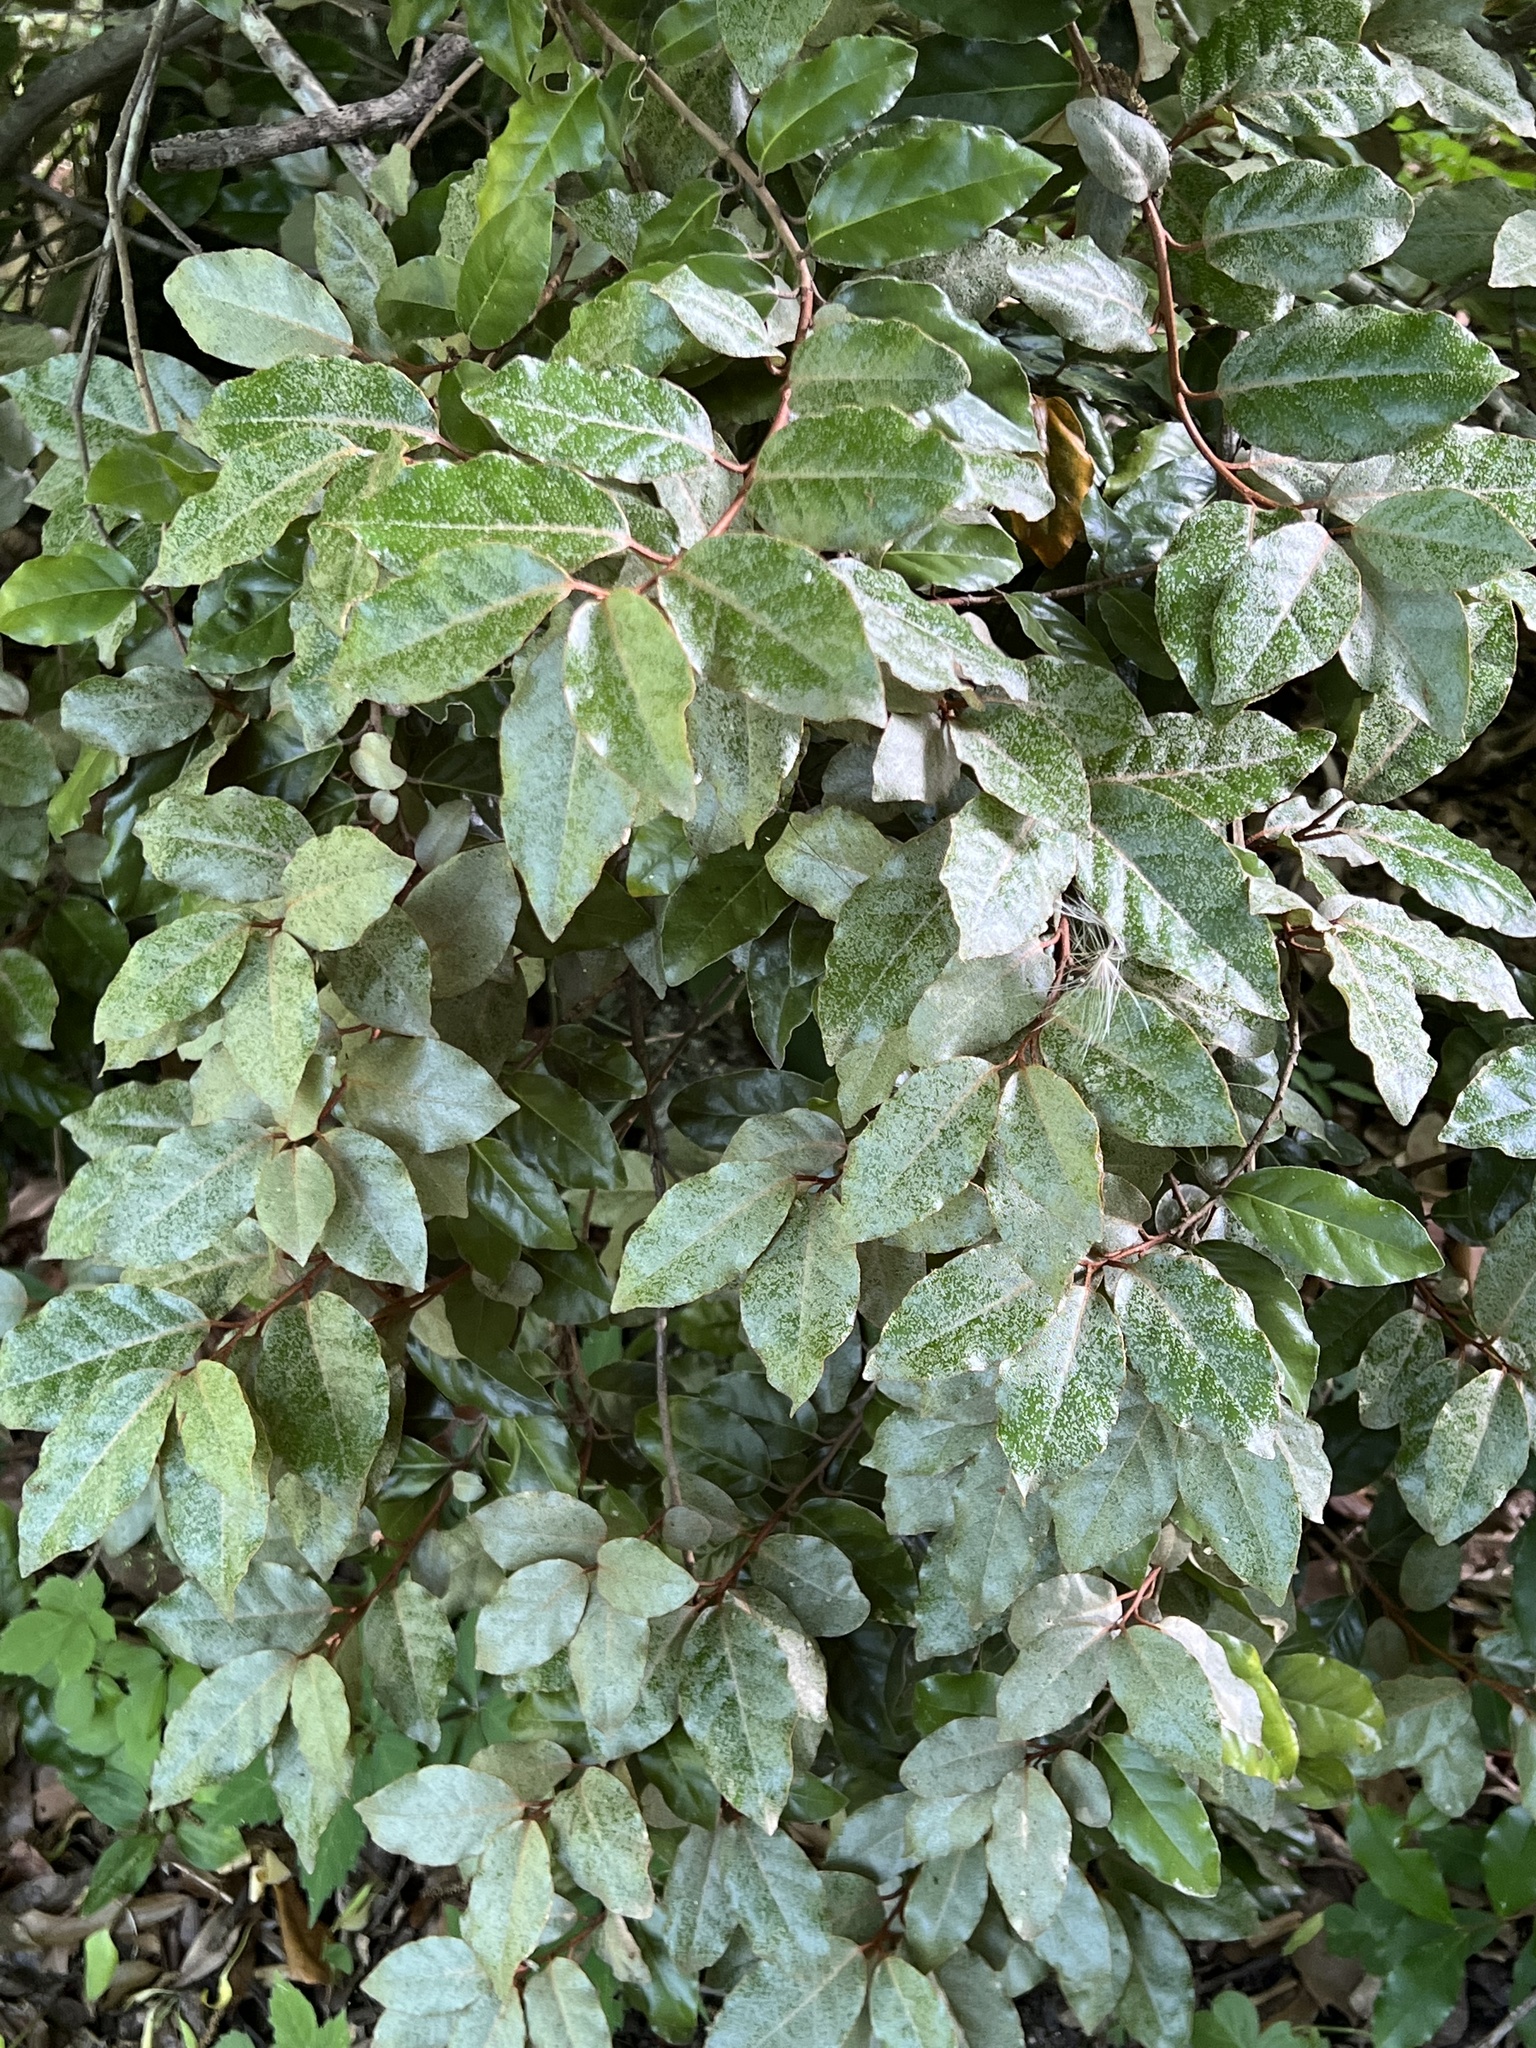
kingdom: Plantae
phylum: Tracheophyta
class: Magnoliopsida
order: Rosales
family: Elaeagnaceae
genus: Elaeagnus
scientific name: Elaeagnus pungens
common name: Spiny oleaster
